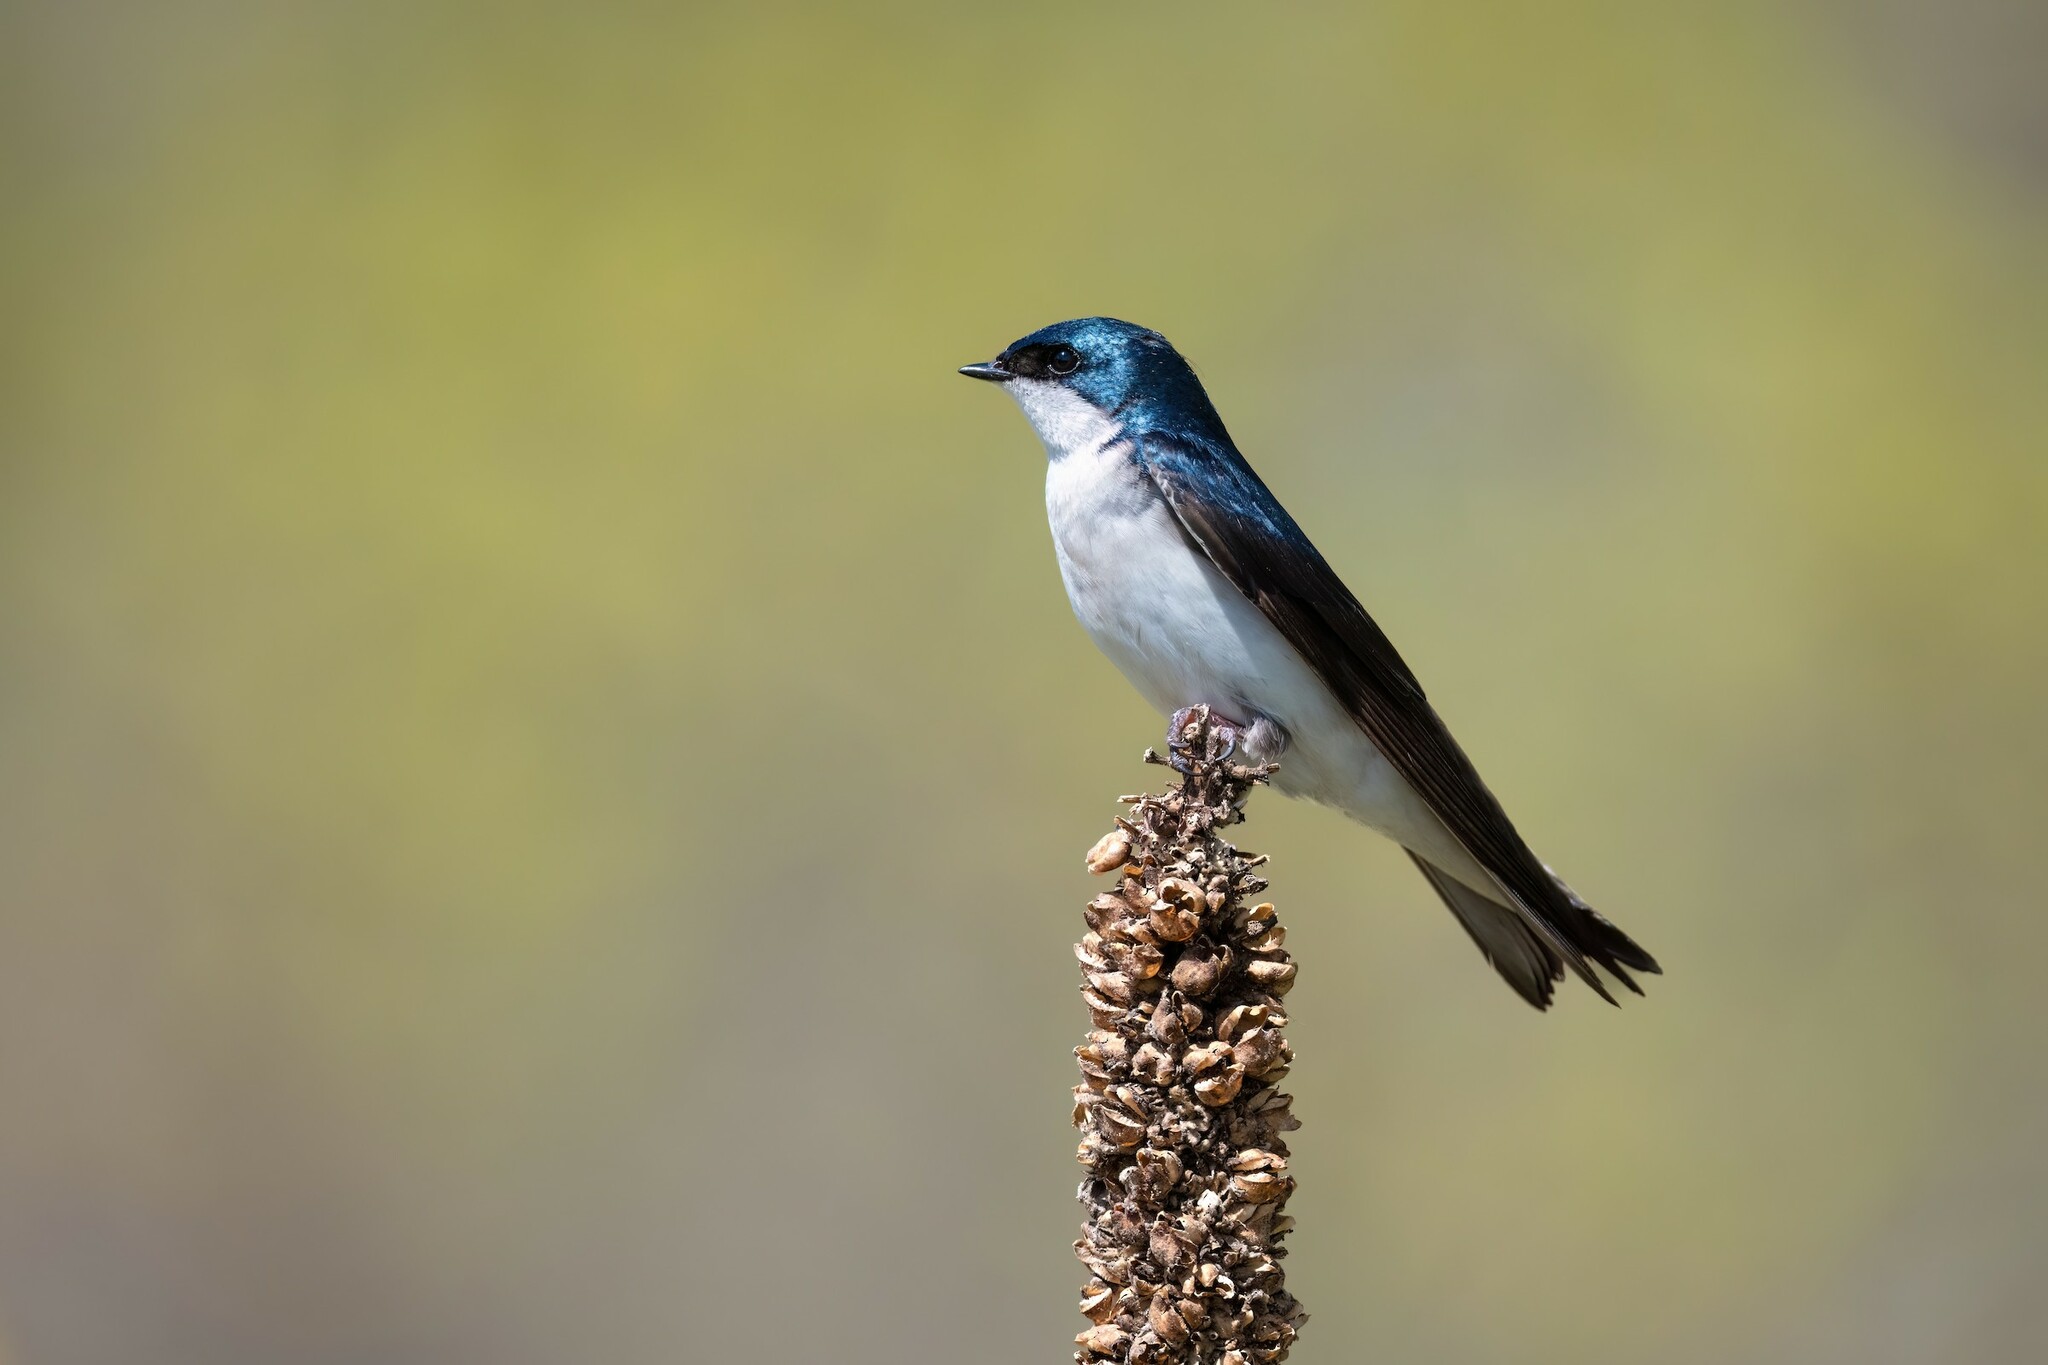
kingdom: Animalia
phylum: Chordata
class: Aves
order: Passeriformes
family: Hirundinidae
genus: Tachycineta
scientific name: Tachycineta bicolor
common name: Tree swallow
